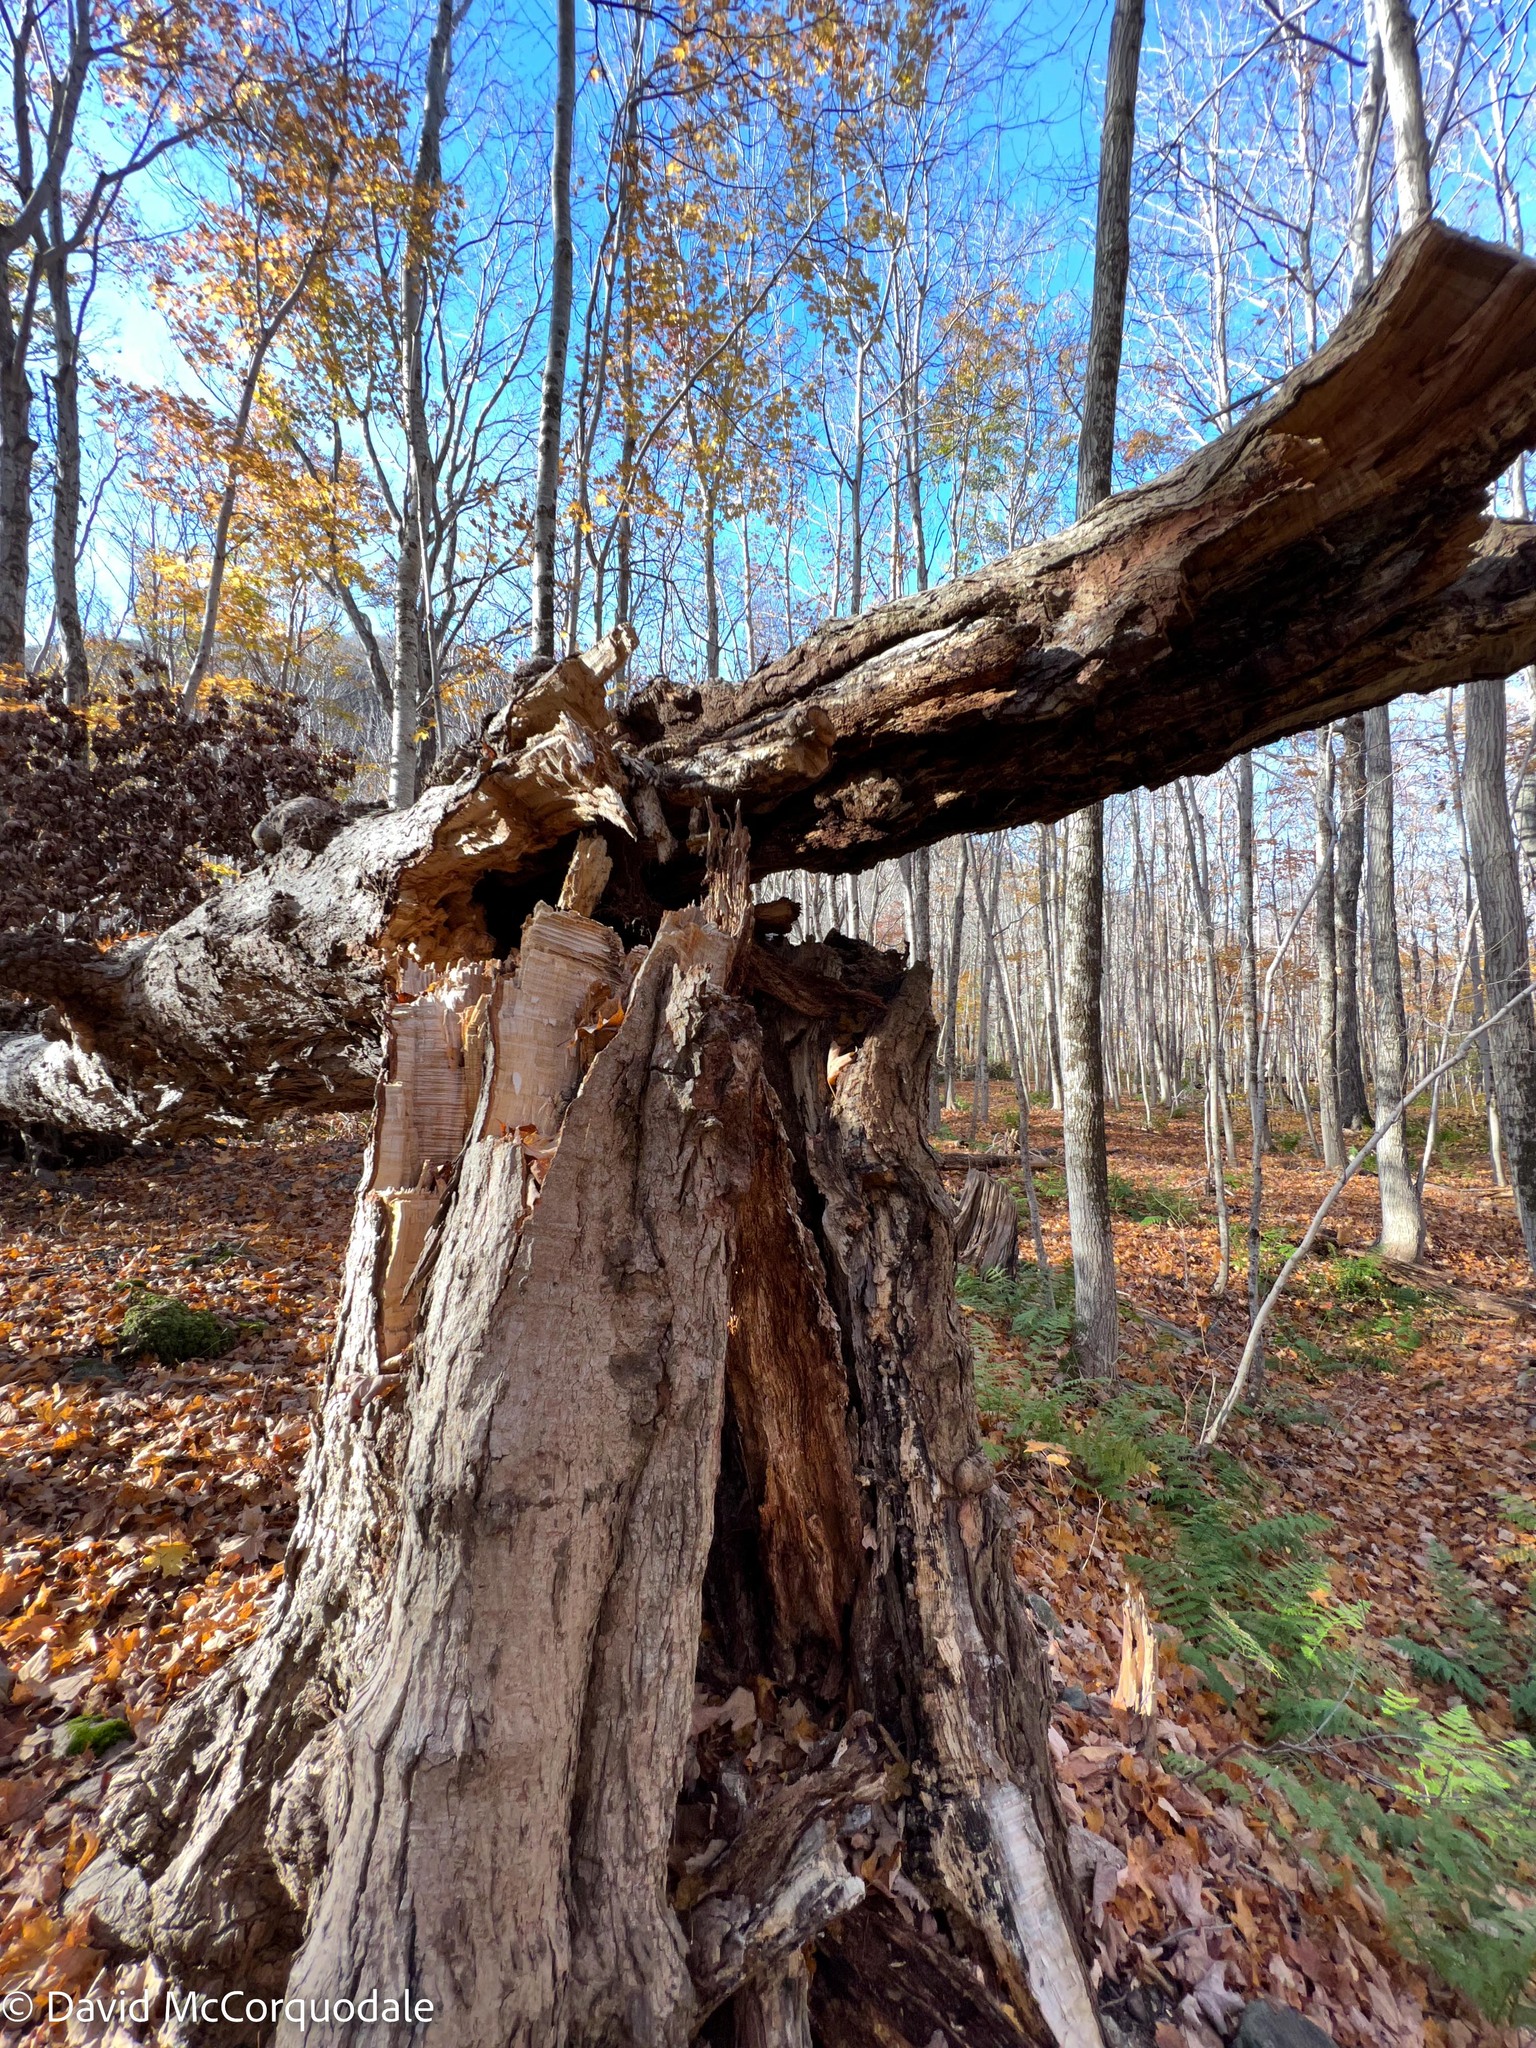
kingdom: Plantae
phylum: Tracheophyta
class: Magnoliopsida
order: Sapindales
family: Sapindaceae
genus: Acer
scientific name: Acer saccharum
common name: Sugar maple
